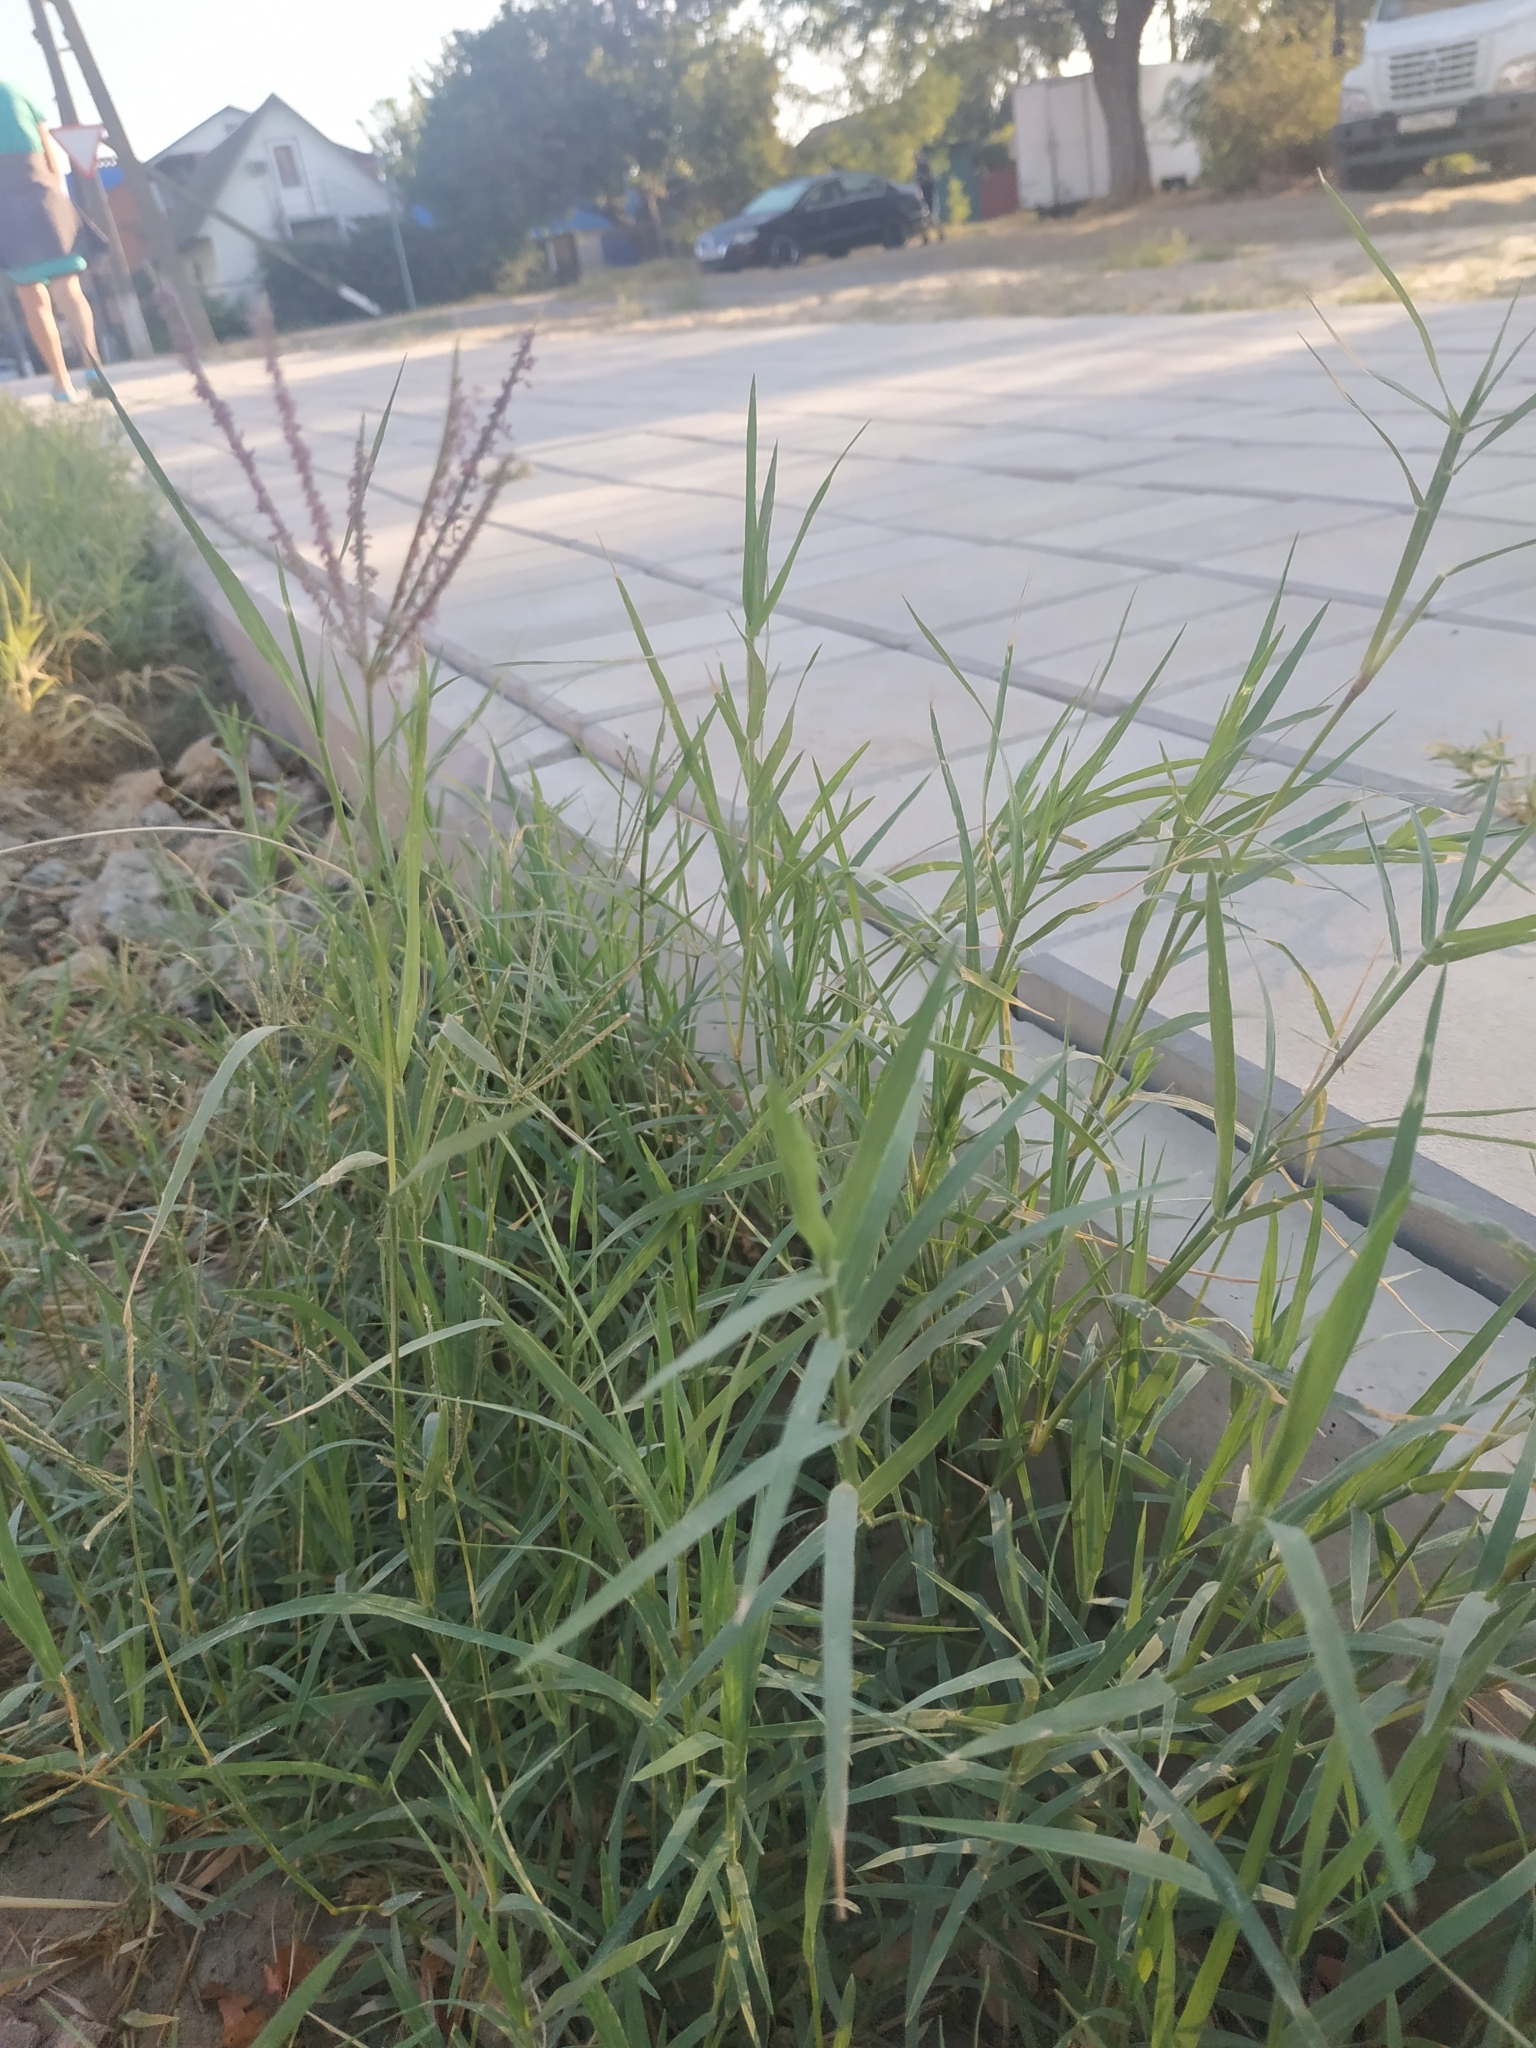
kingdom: Plantae
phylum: Tracheophyta
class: Liliopsida
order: Poales
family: Poaceae
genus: Cynodon
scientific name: Cynodon dactylon
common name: Bermuda grass
